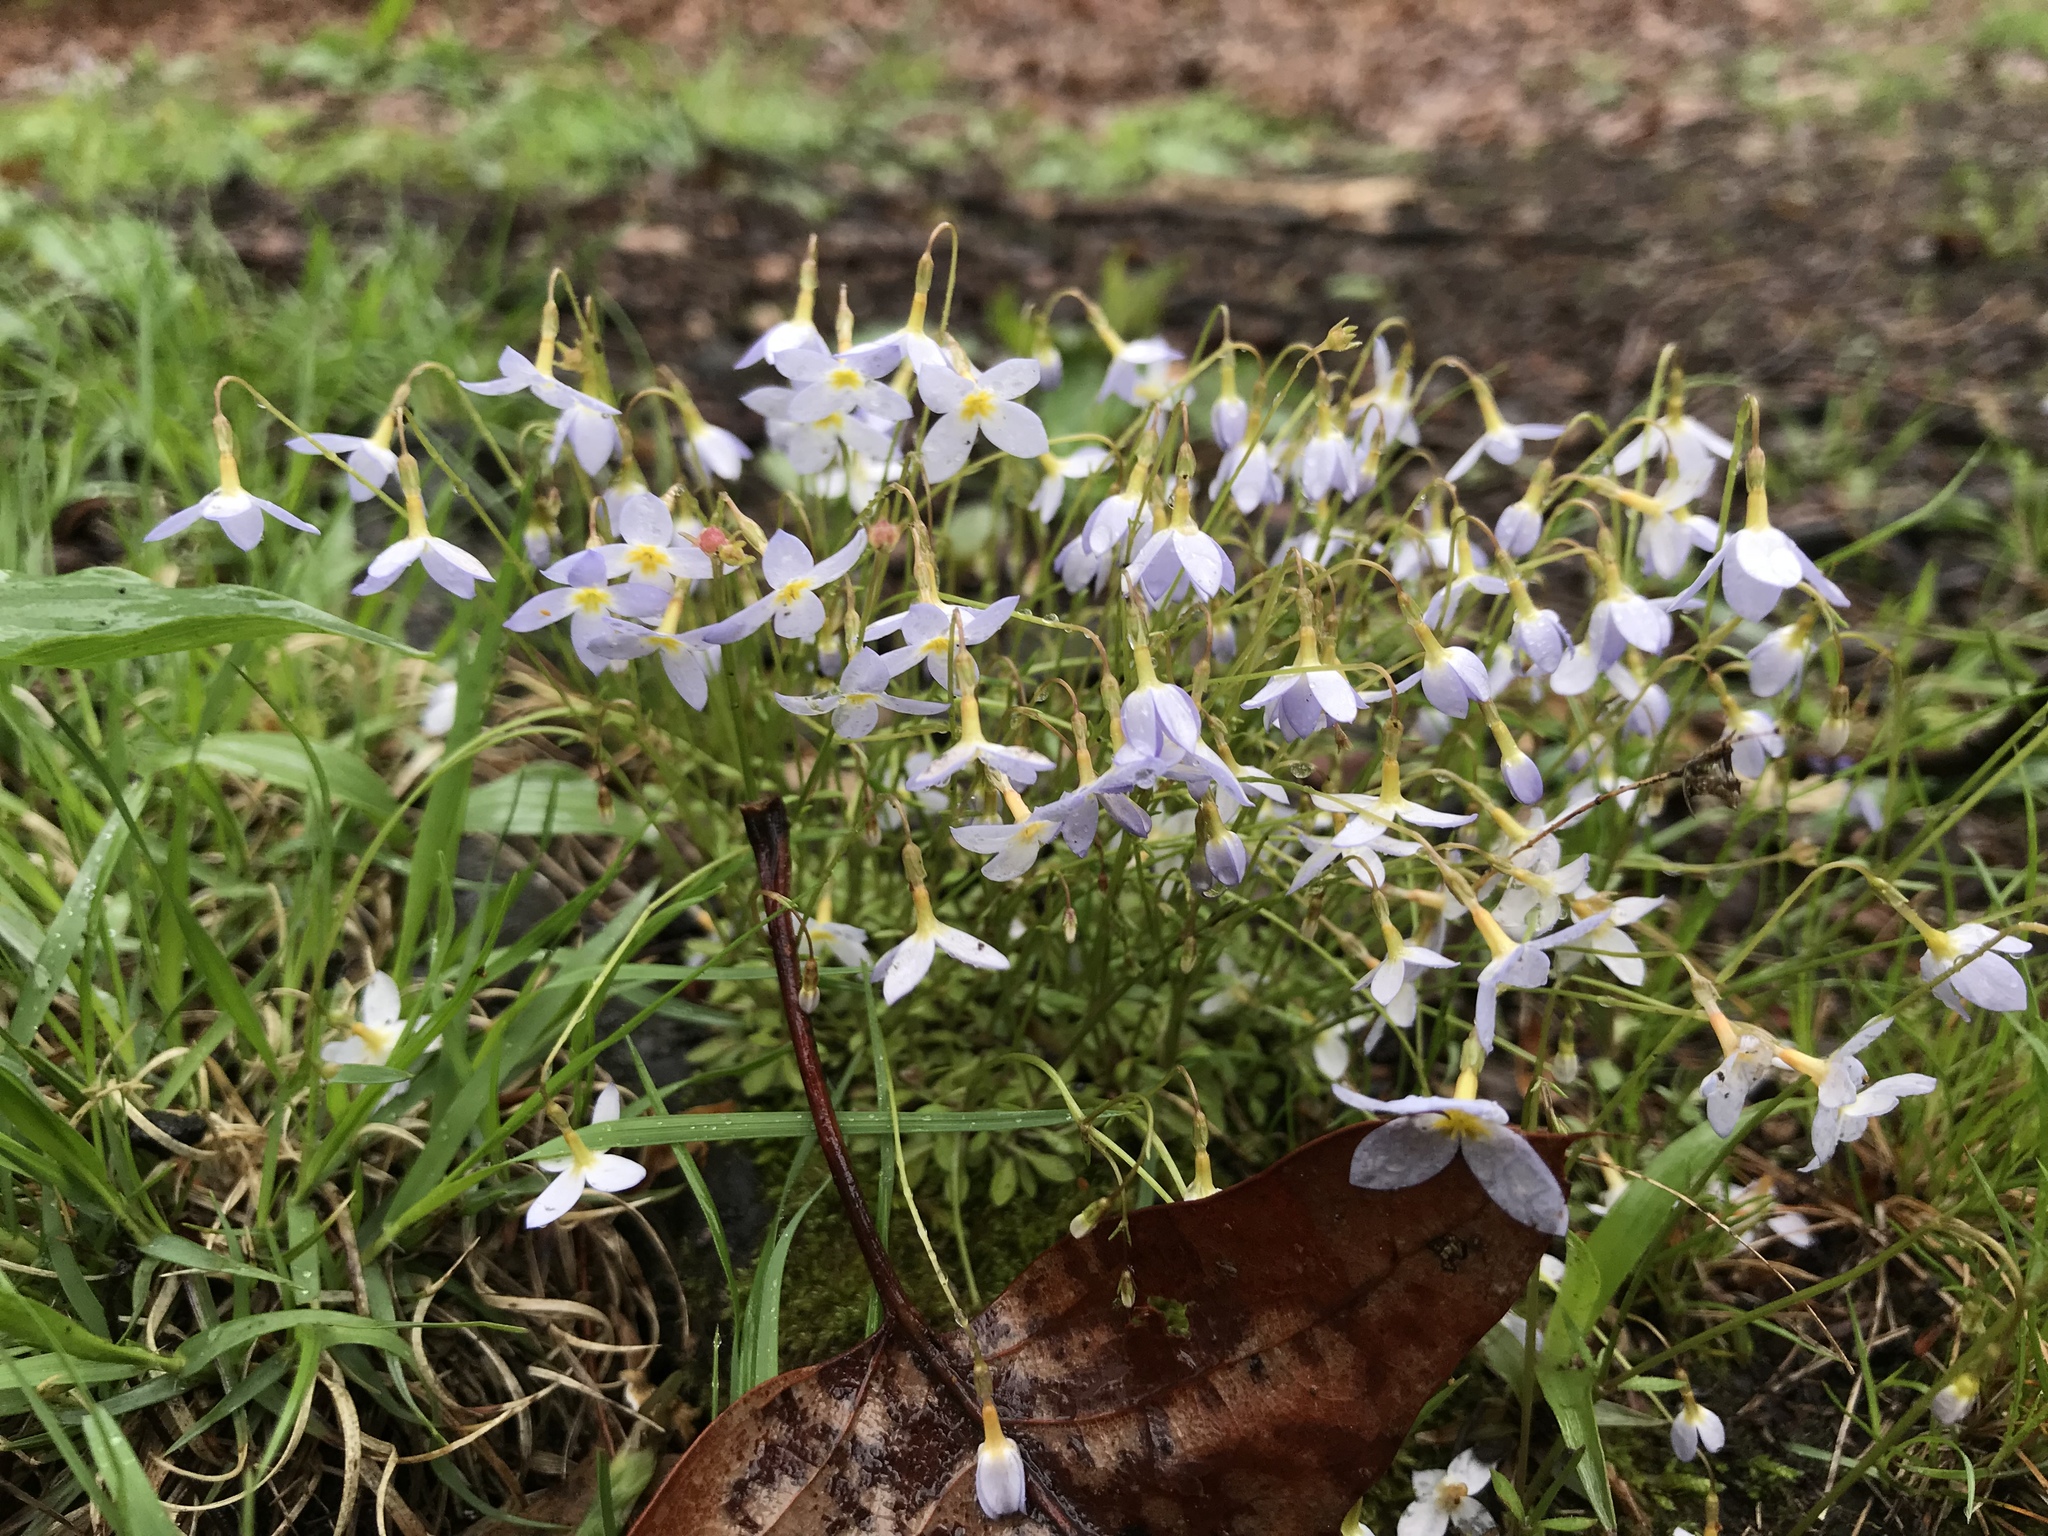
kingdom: Plantae
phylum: Tracheophyta
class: Magnoliopsida
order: Gentianales
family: Rubiaceae
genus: Houstonia
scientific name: Houstonia caerulea
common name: Bluets
